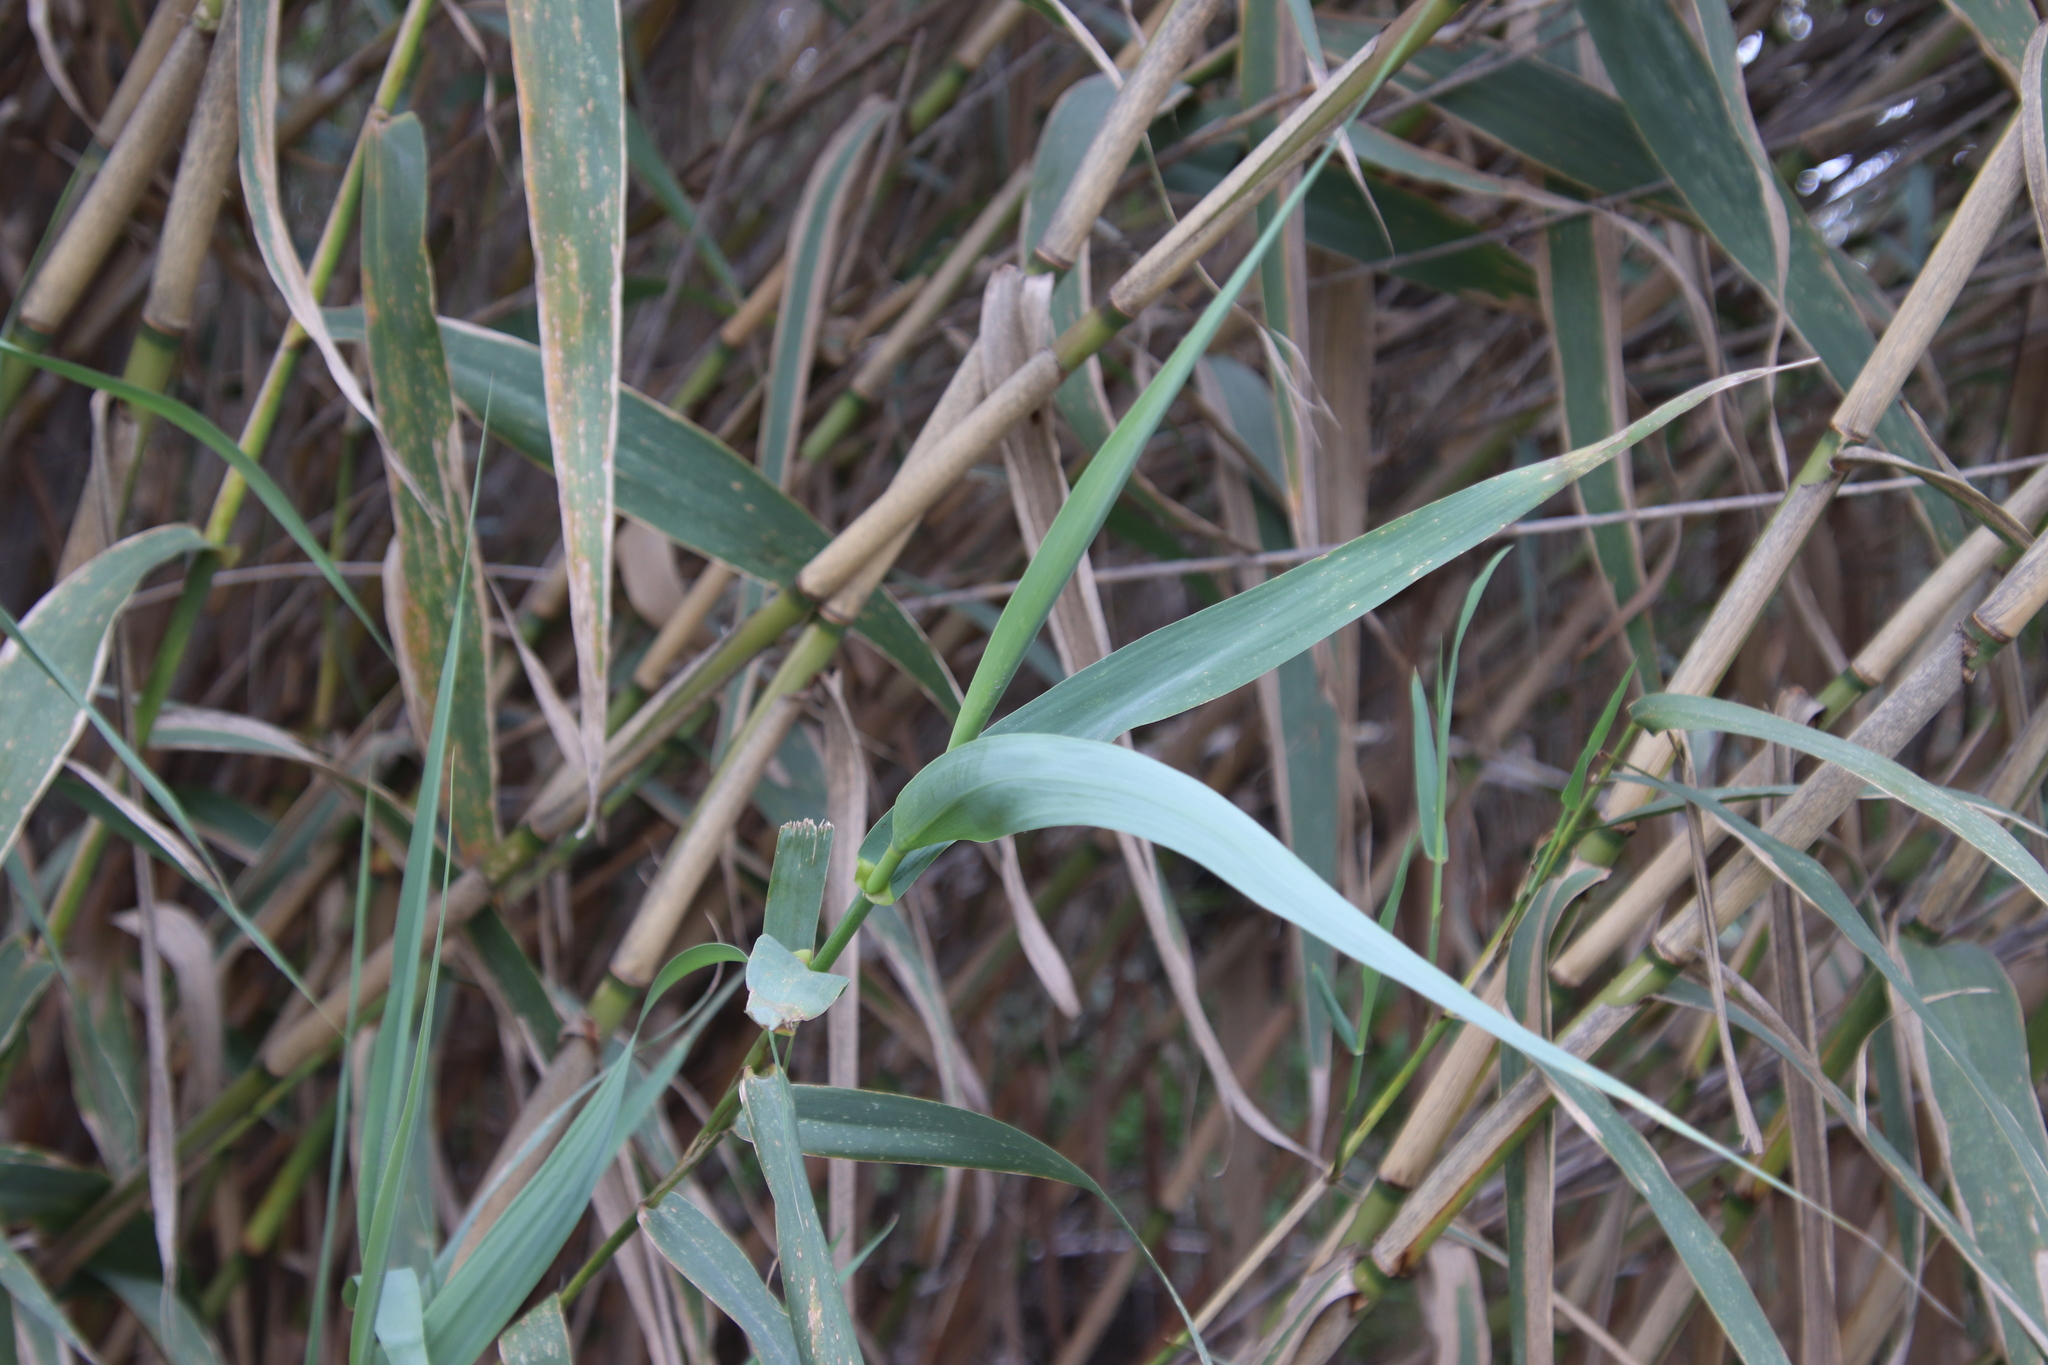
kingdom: Plantae
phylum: Tracheophyta
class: Liliopsida
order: Poales
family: Poaceae
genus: Arundo
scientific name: Arundo donax
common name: Giant reed
